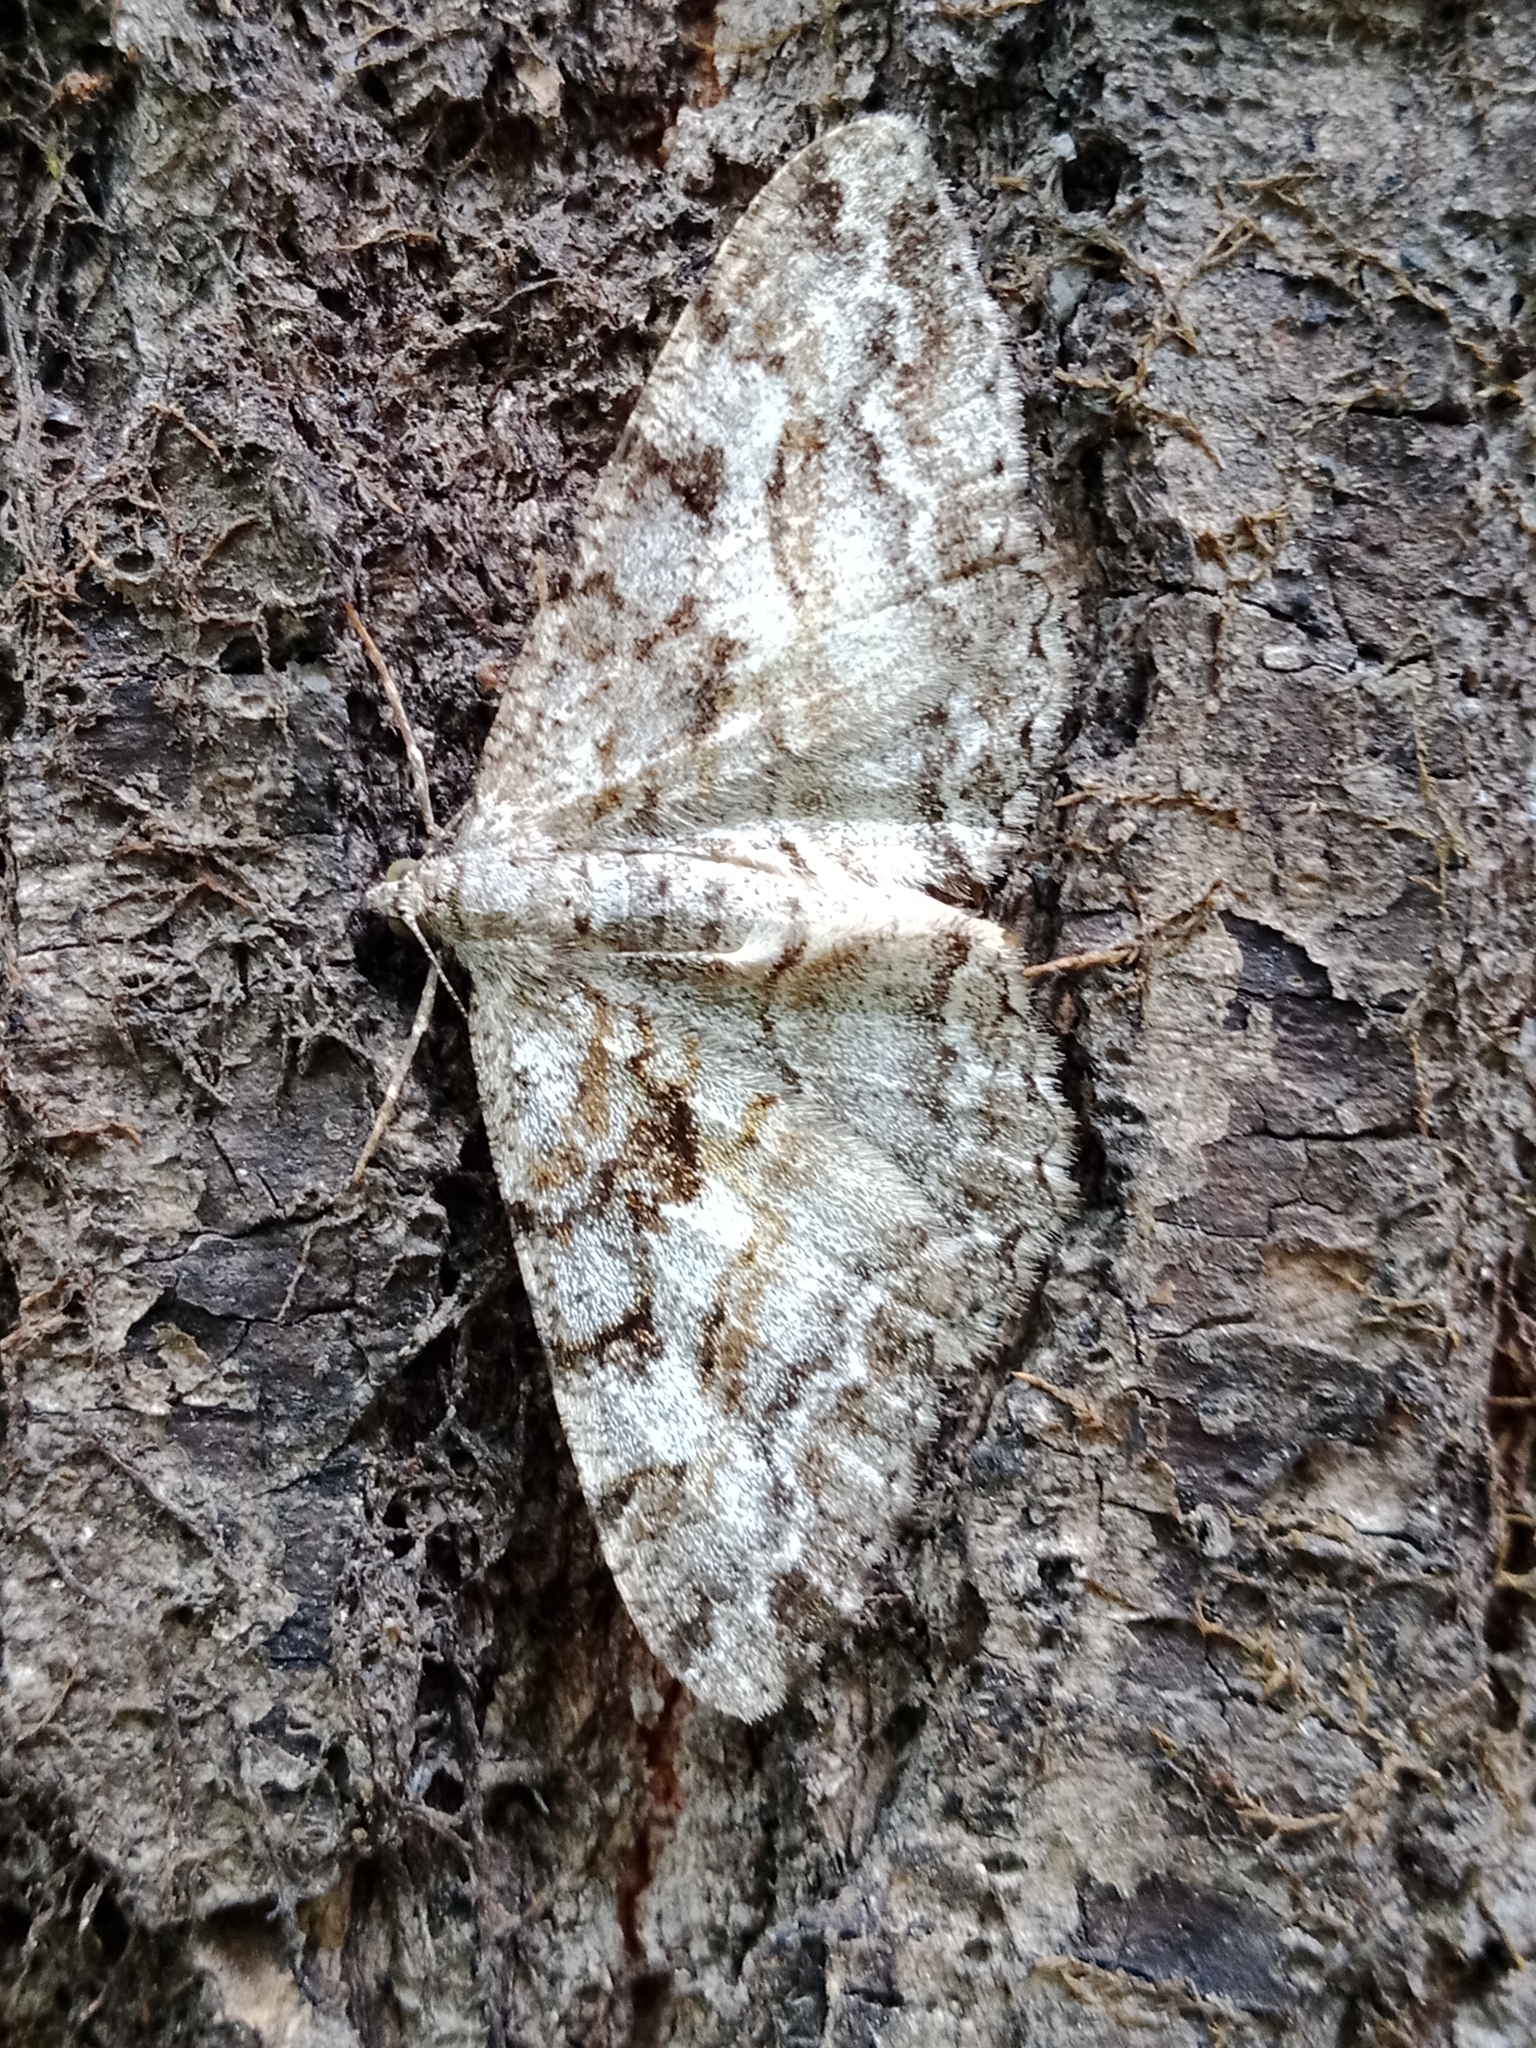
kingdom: Animalia
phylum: Arthropoda
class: Insecta
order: Lepidoptera
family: Geometridae
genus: Alcis
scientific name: Alcis repandata
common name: Mottled beauty
